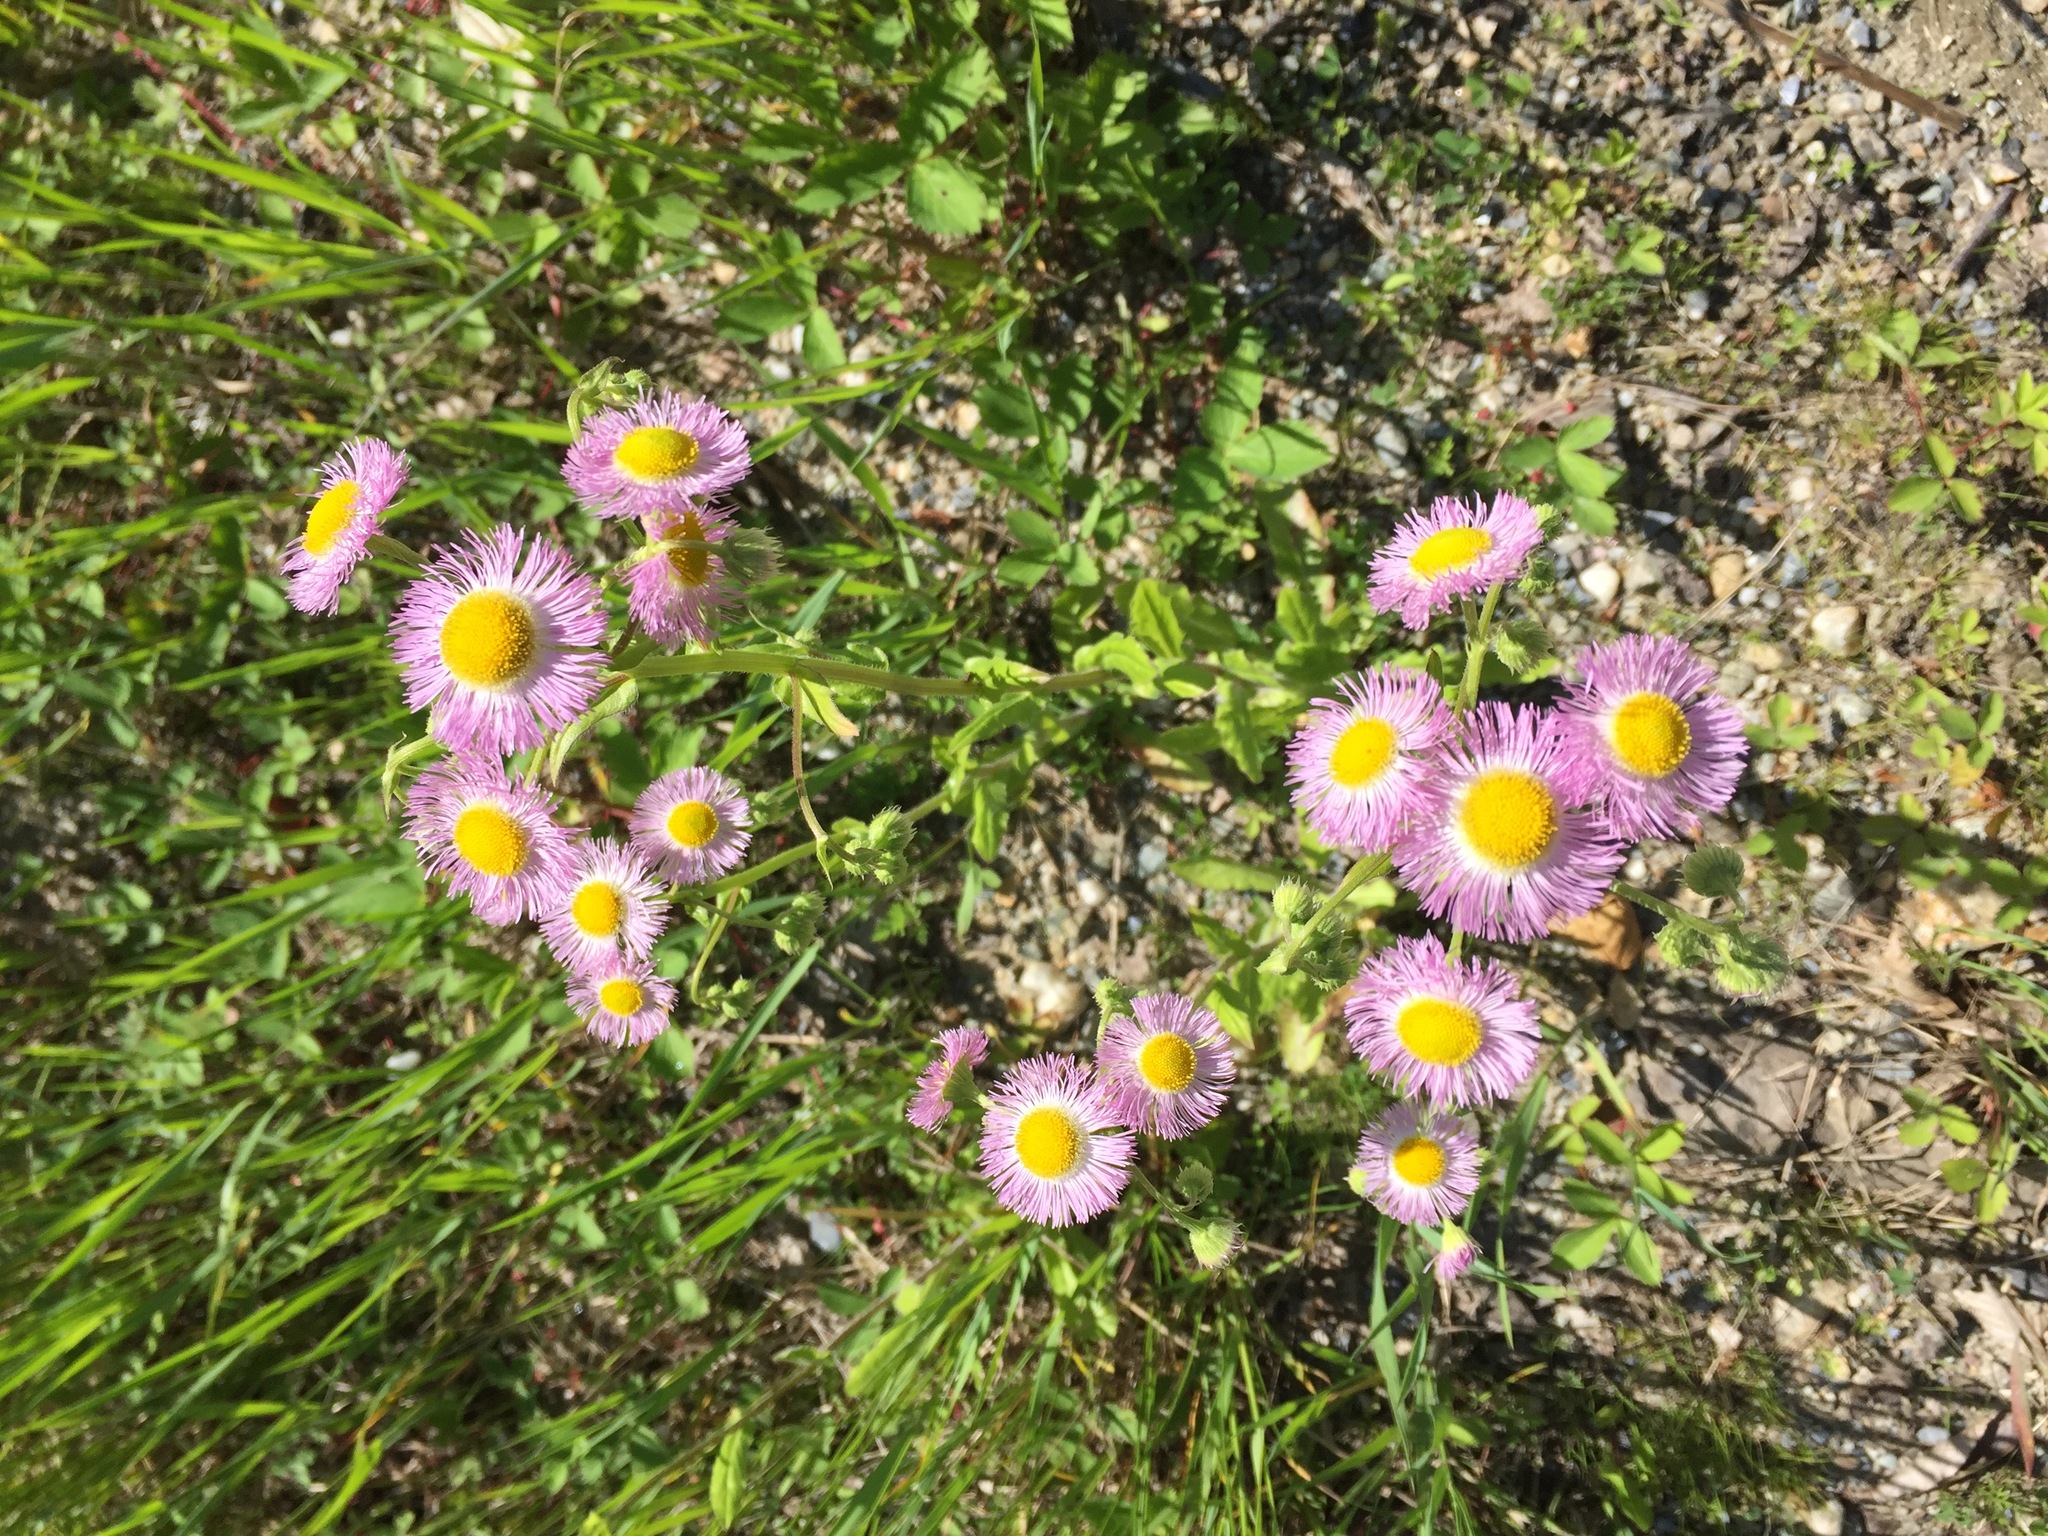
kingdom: Plantae
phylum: Tracheophyta
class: Magnoliopsida
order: Asterales
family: Asteraceae
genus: Erigeron
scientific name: Erigeron philadelphicus
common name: Robin's-plantain
